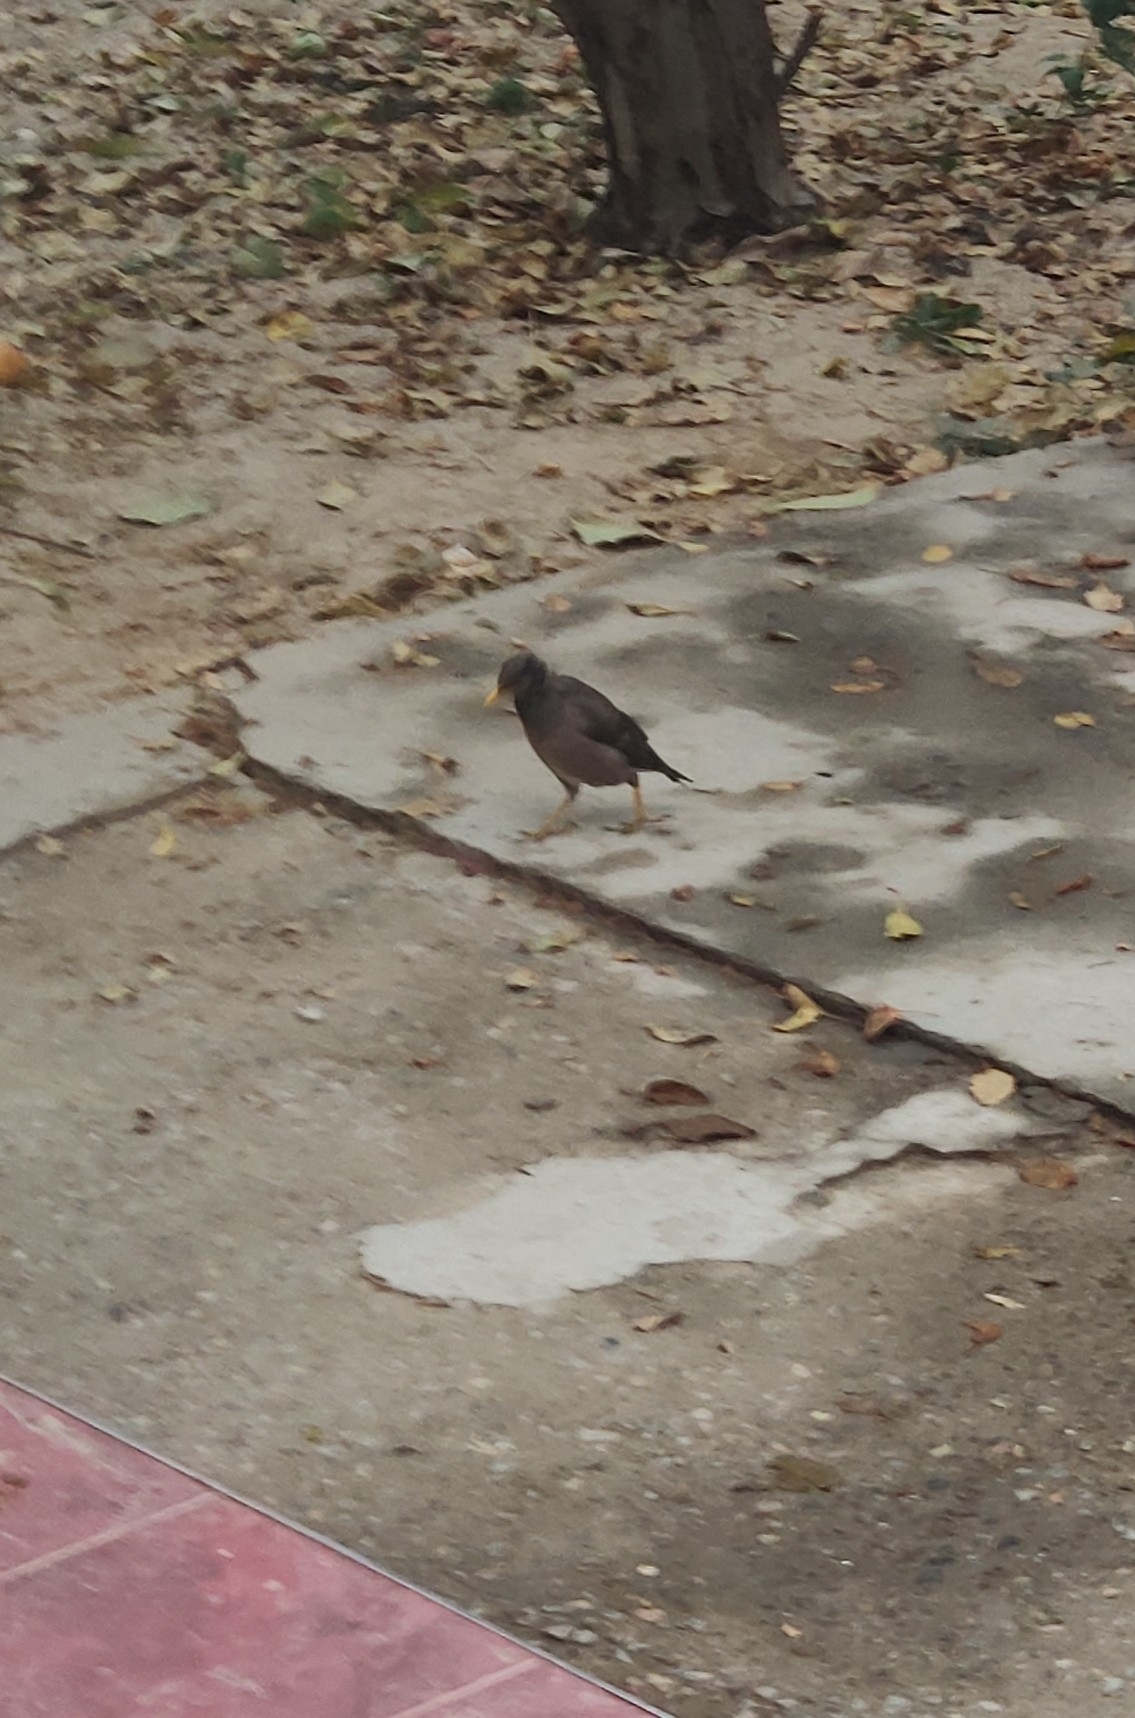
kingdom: Animalia
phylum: Chordata
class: Aves
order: Passeriformes
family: Sturnidae
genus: Acridotheres
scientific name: Acridotheres tristis
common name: Common myna
